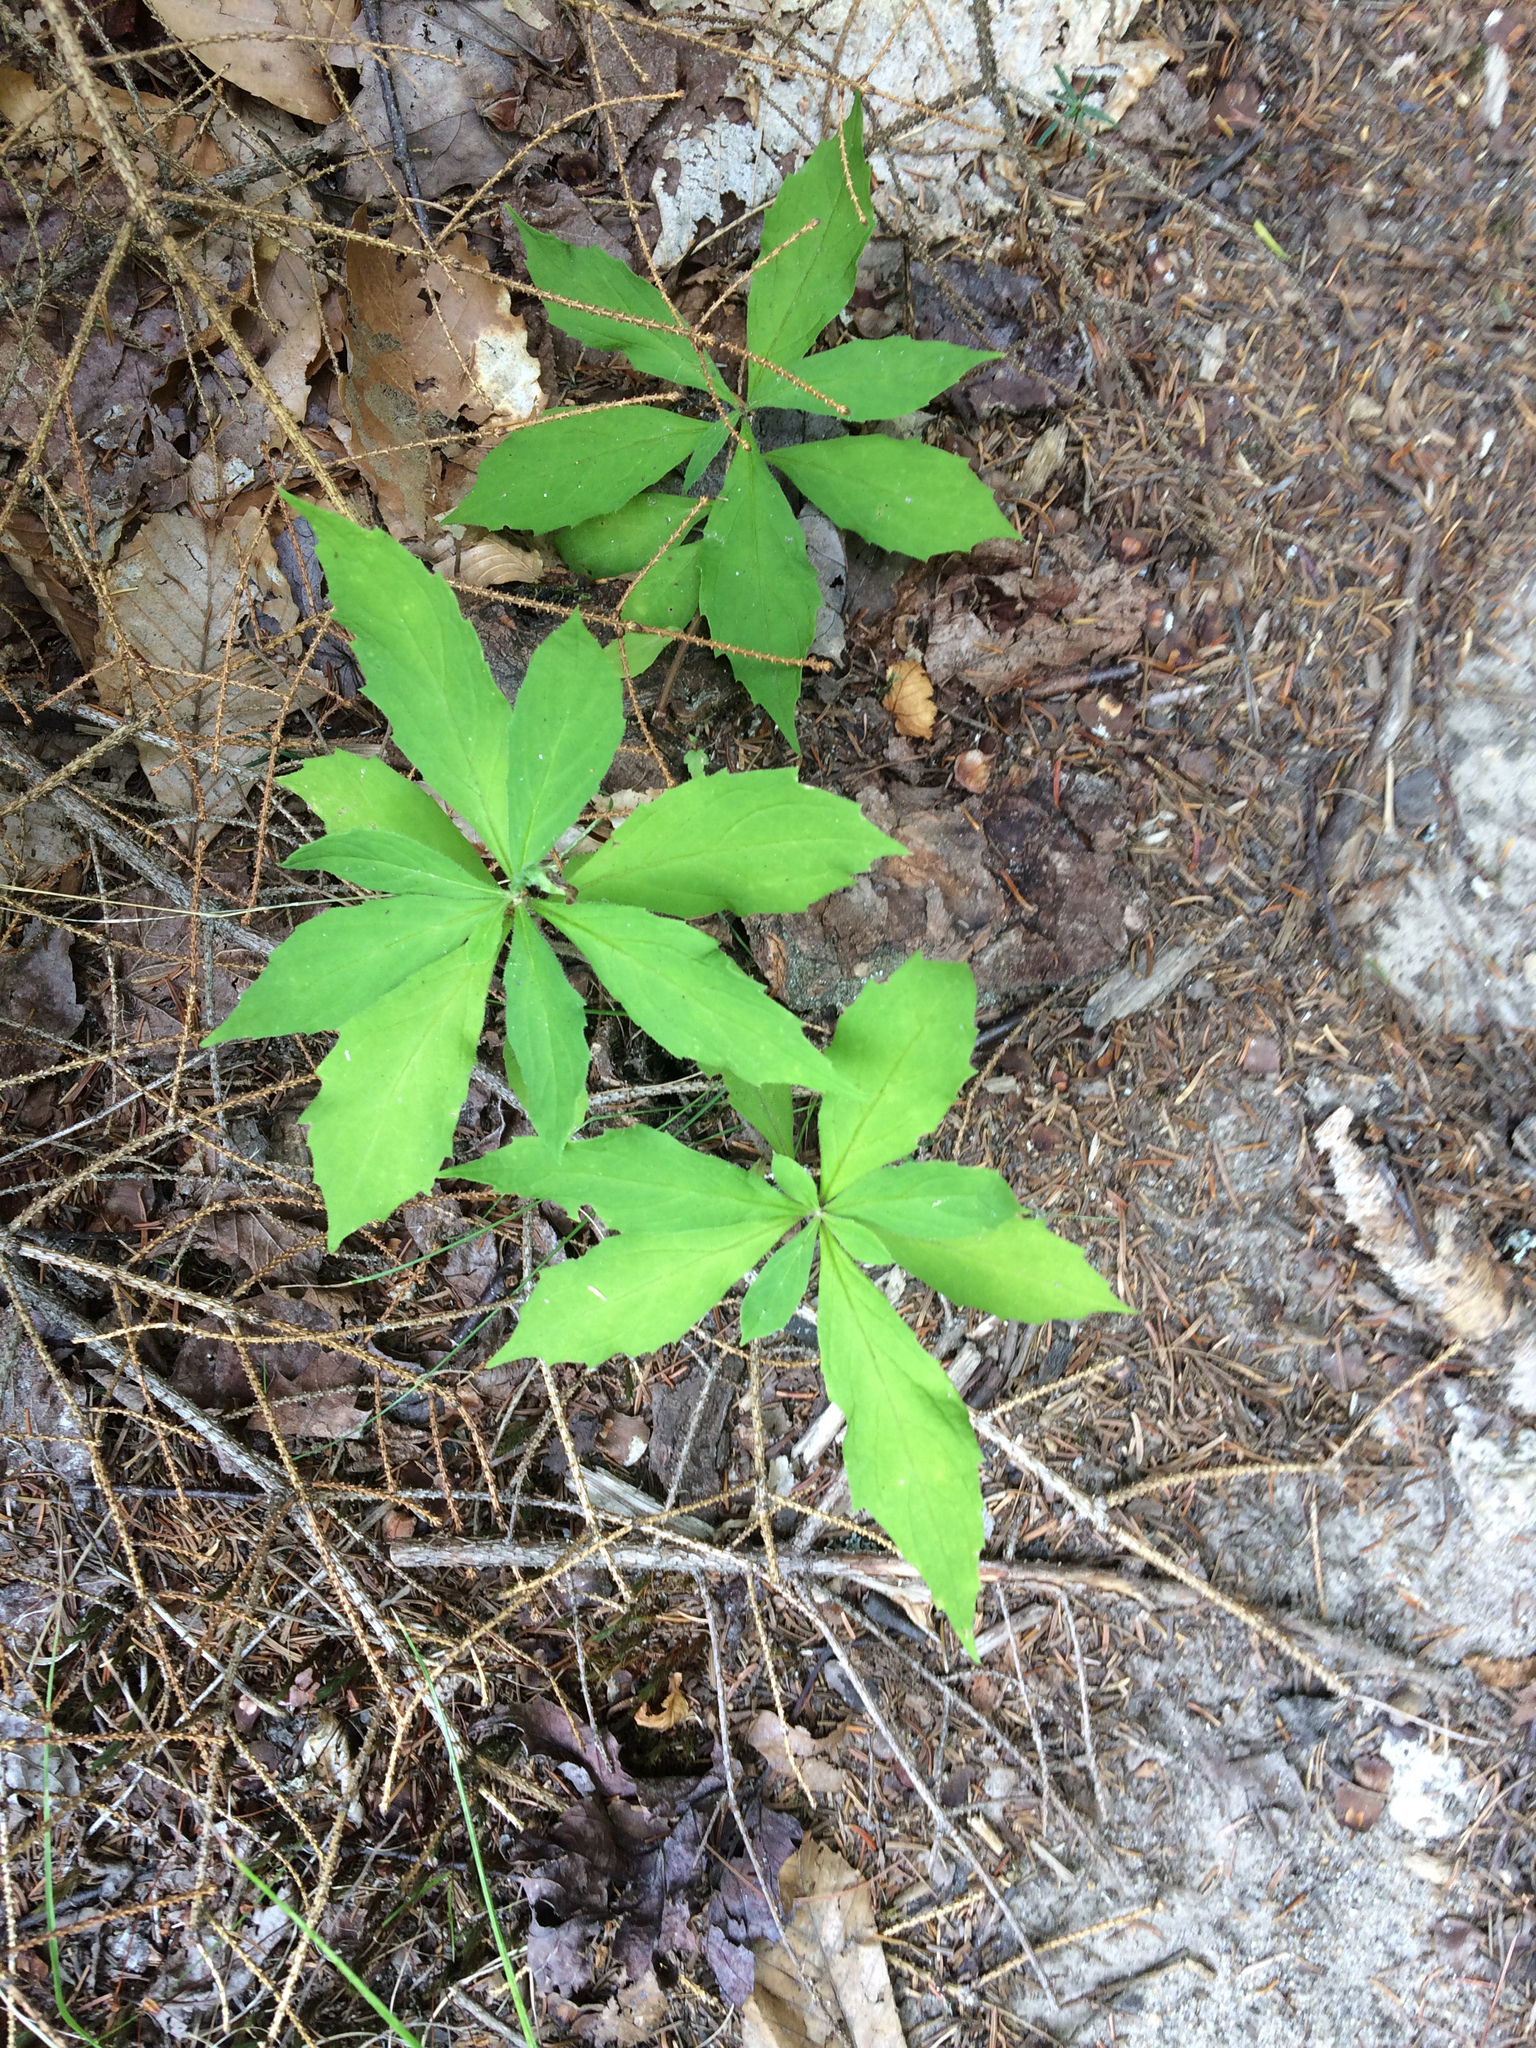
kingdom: Plantae
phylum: Tracheophyta
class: Magnoliopsida
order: Asterales
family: Asteraceae
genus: Oclemena
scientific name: Oclemena acuminata
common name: Mountain aster
